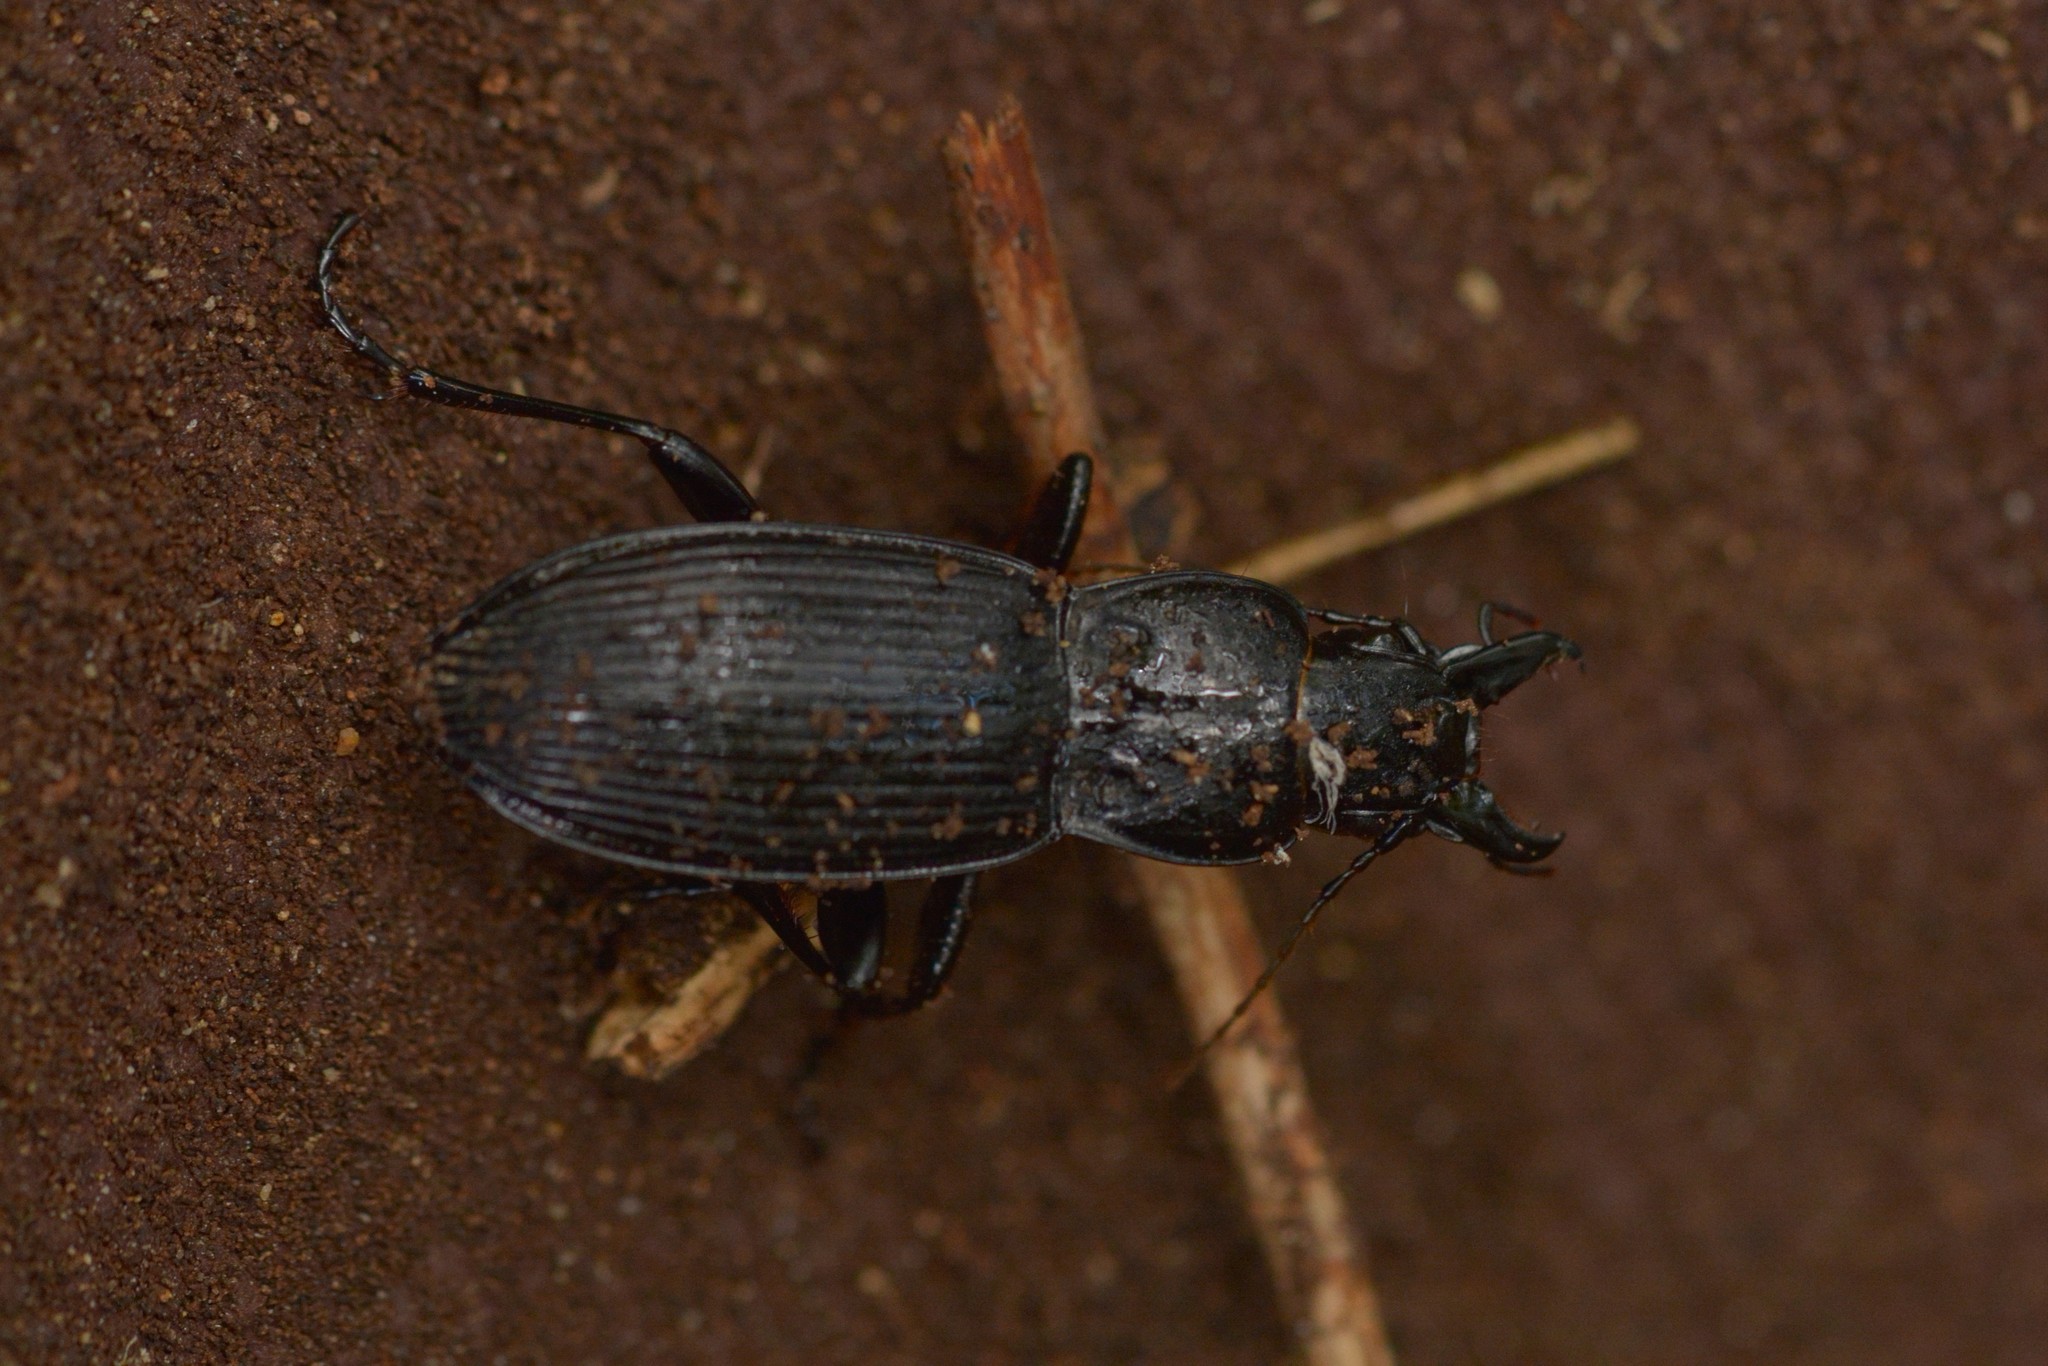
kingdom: Animalia
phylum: Arthropoda
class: Insecta
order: Coleoptera
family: Carabidae
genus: Plocamostethus
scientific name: Plocamostethus planiusculus
